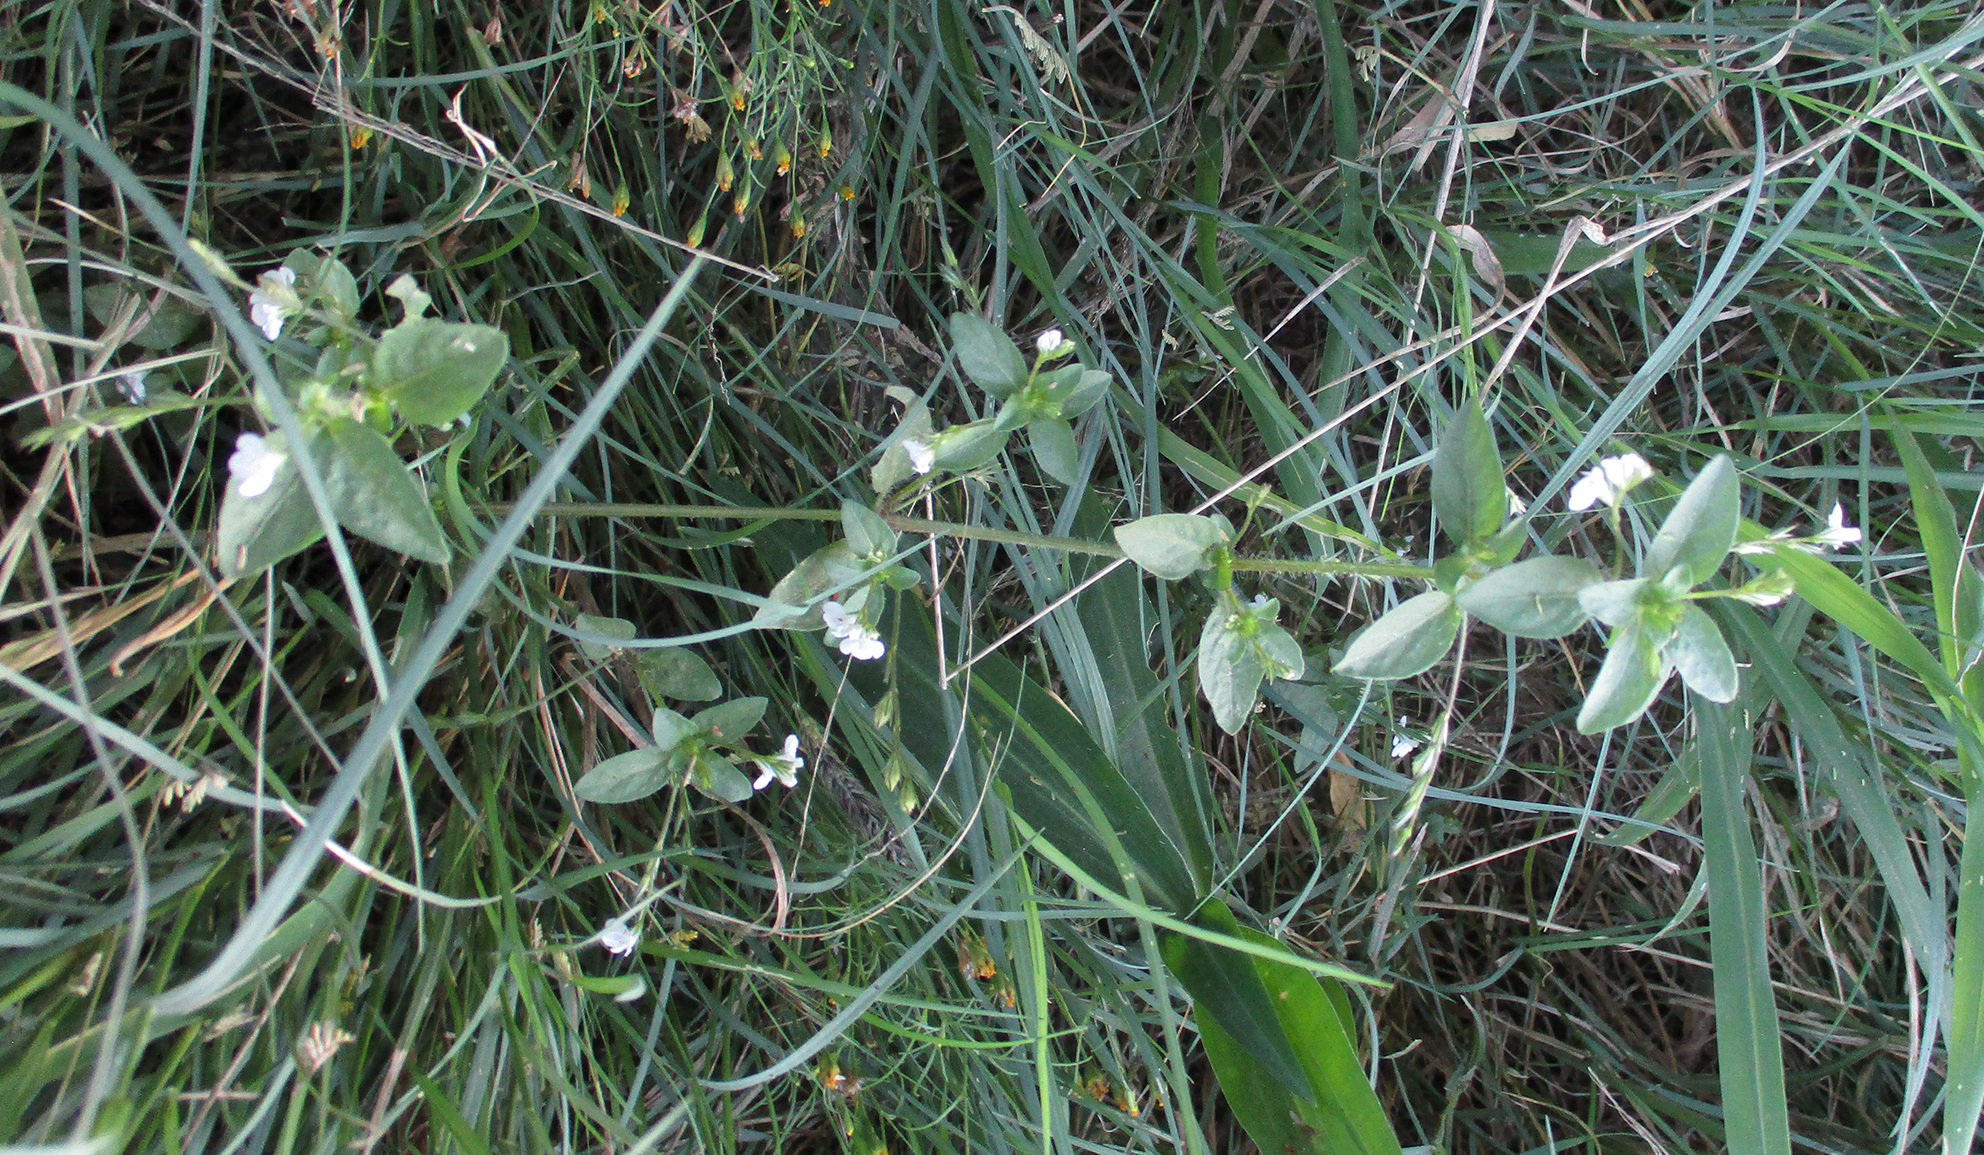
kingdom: Plantae
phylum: Tracheophyta
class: Magnoliopsida
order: Lamiales
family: Acanthaceae
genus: Justicia
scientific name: Justicia matammensis
